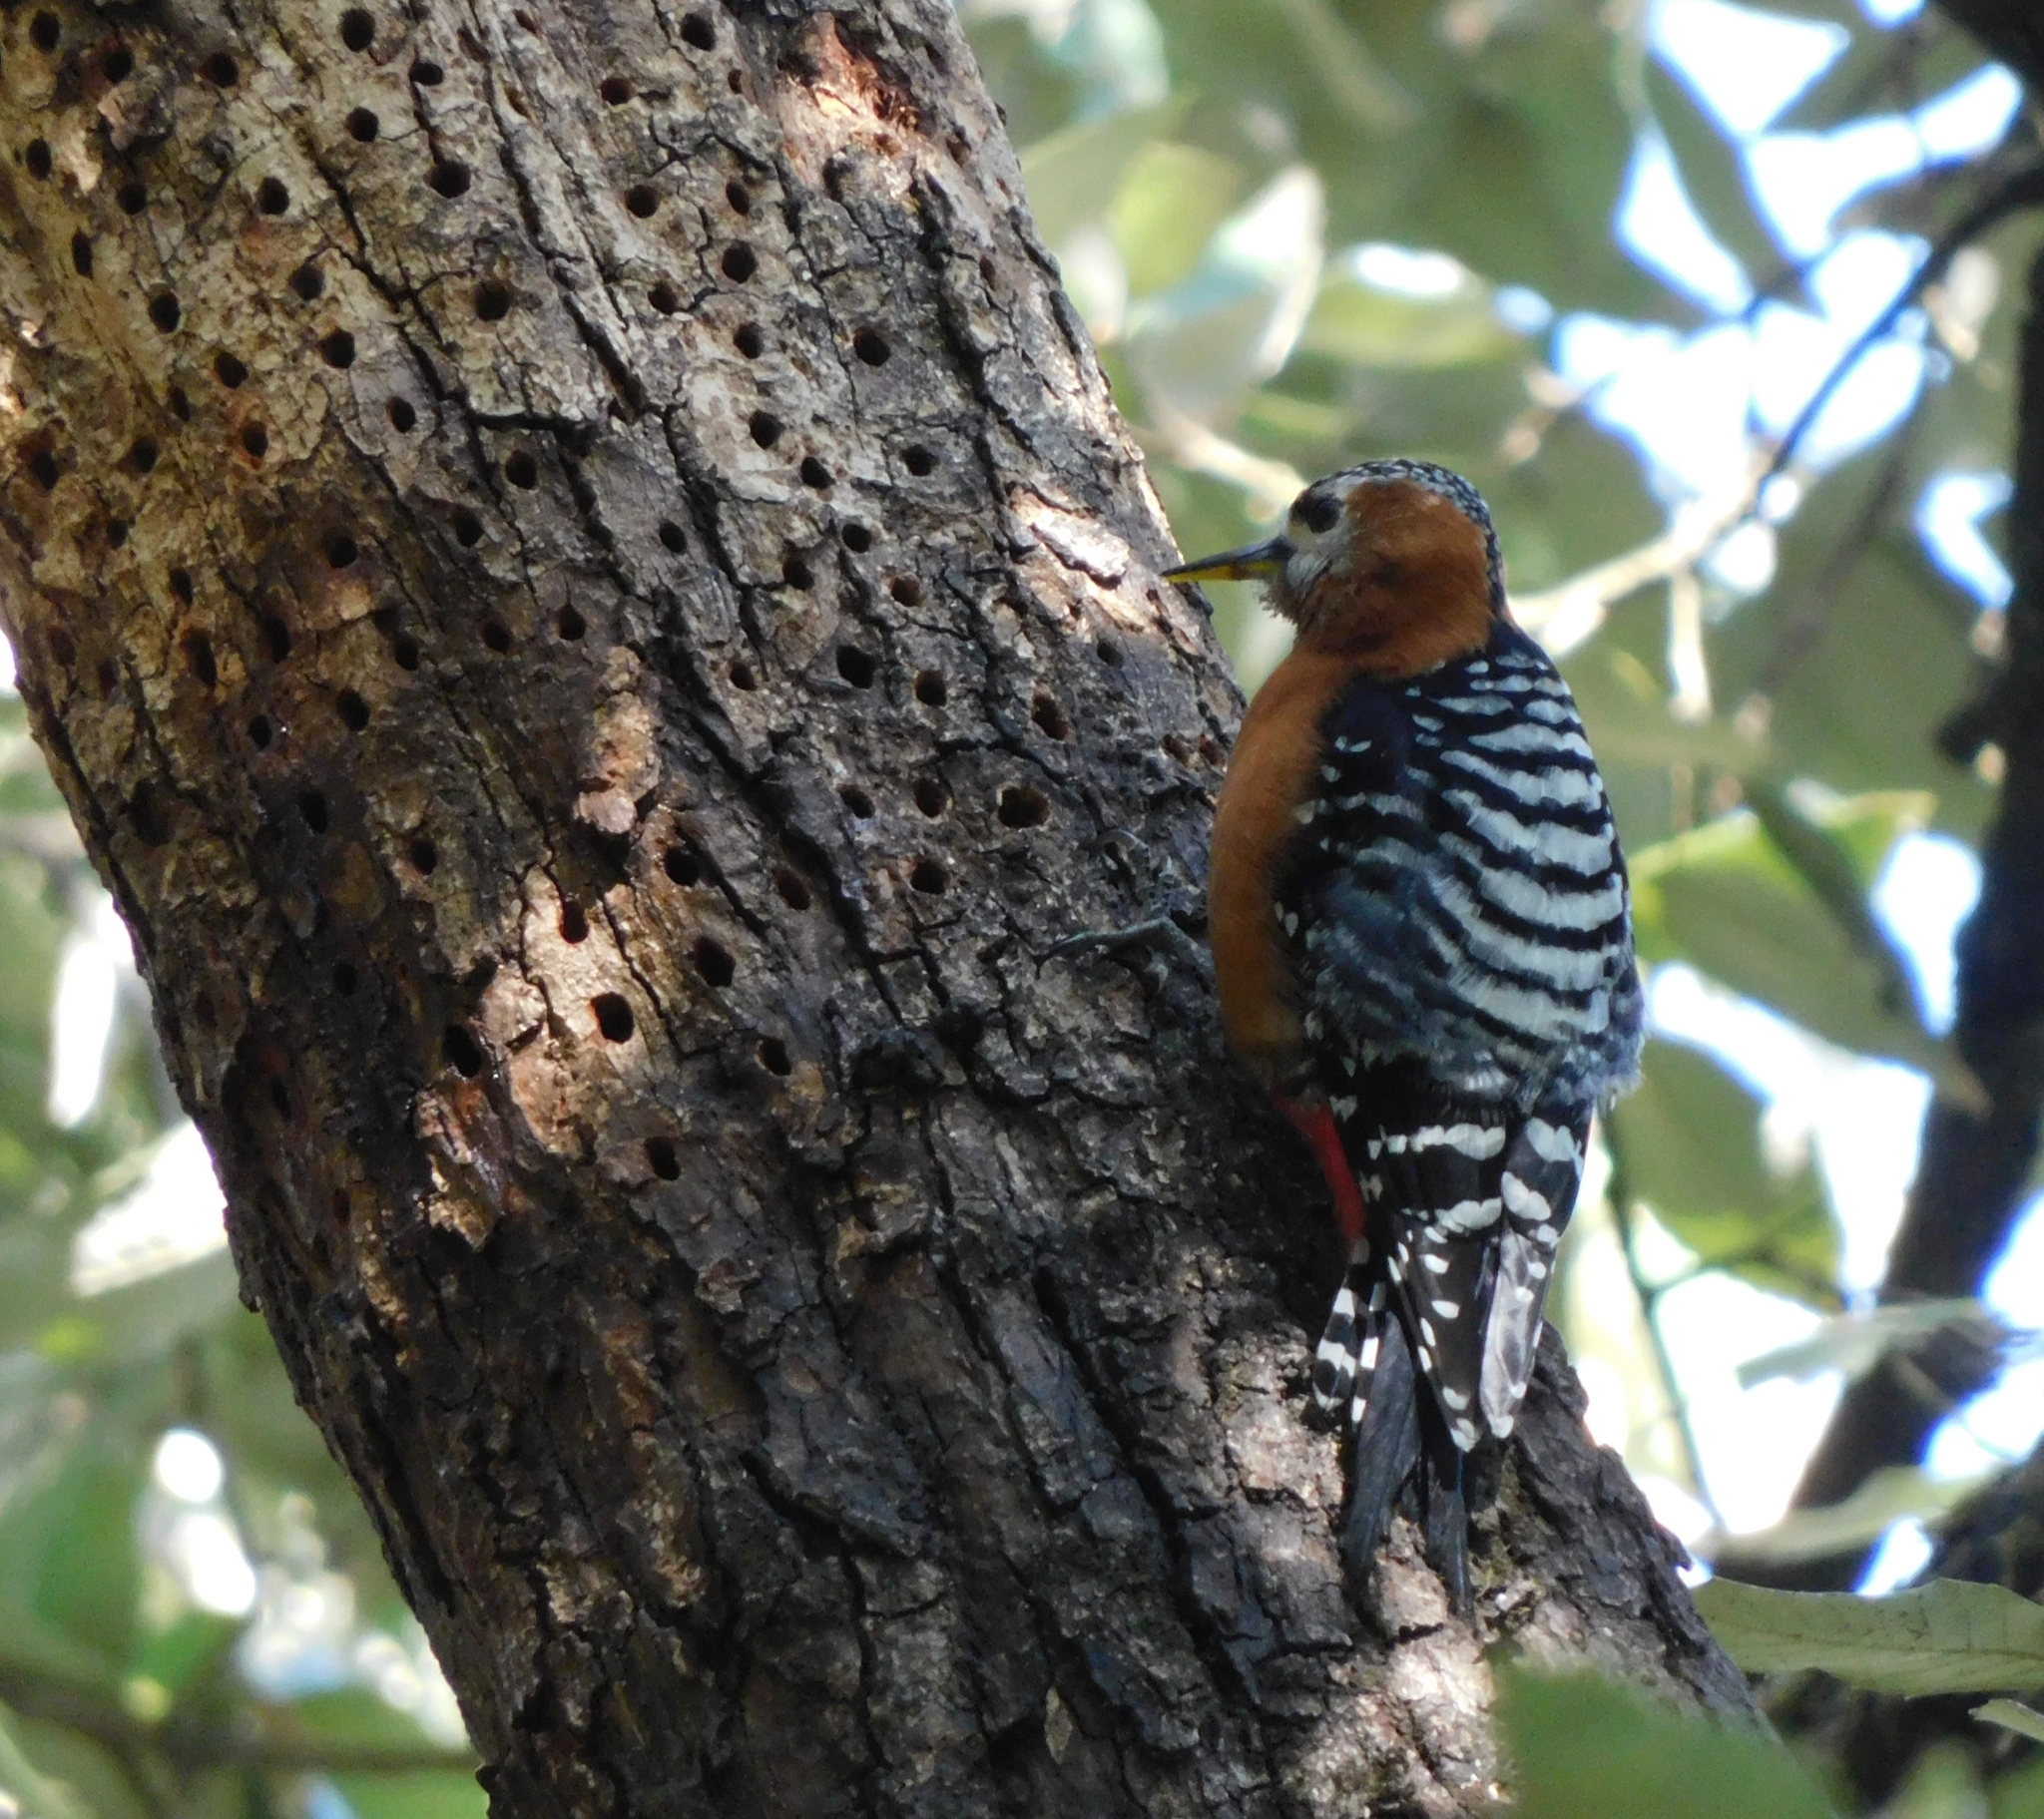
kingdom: Animalia
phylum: Chordata
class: Aves
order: Piciformes
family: Picidae
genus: Dendrocopos
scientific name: Dendrocopos hyperythrus
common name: Rufous-bellied woodpecker
